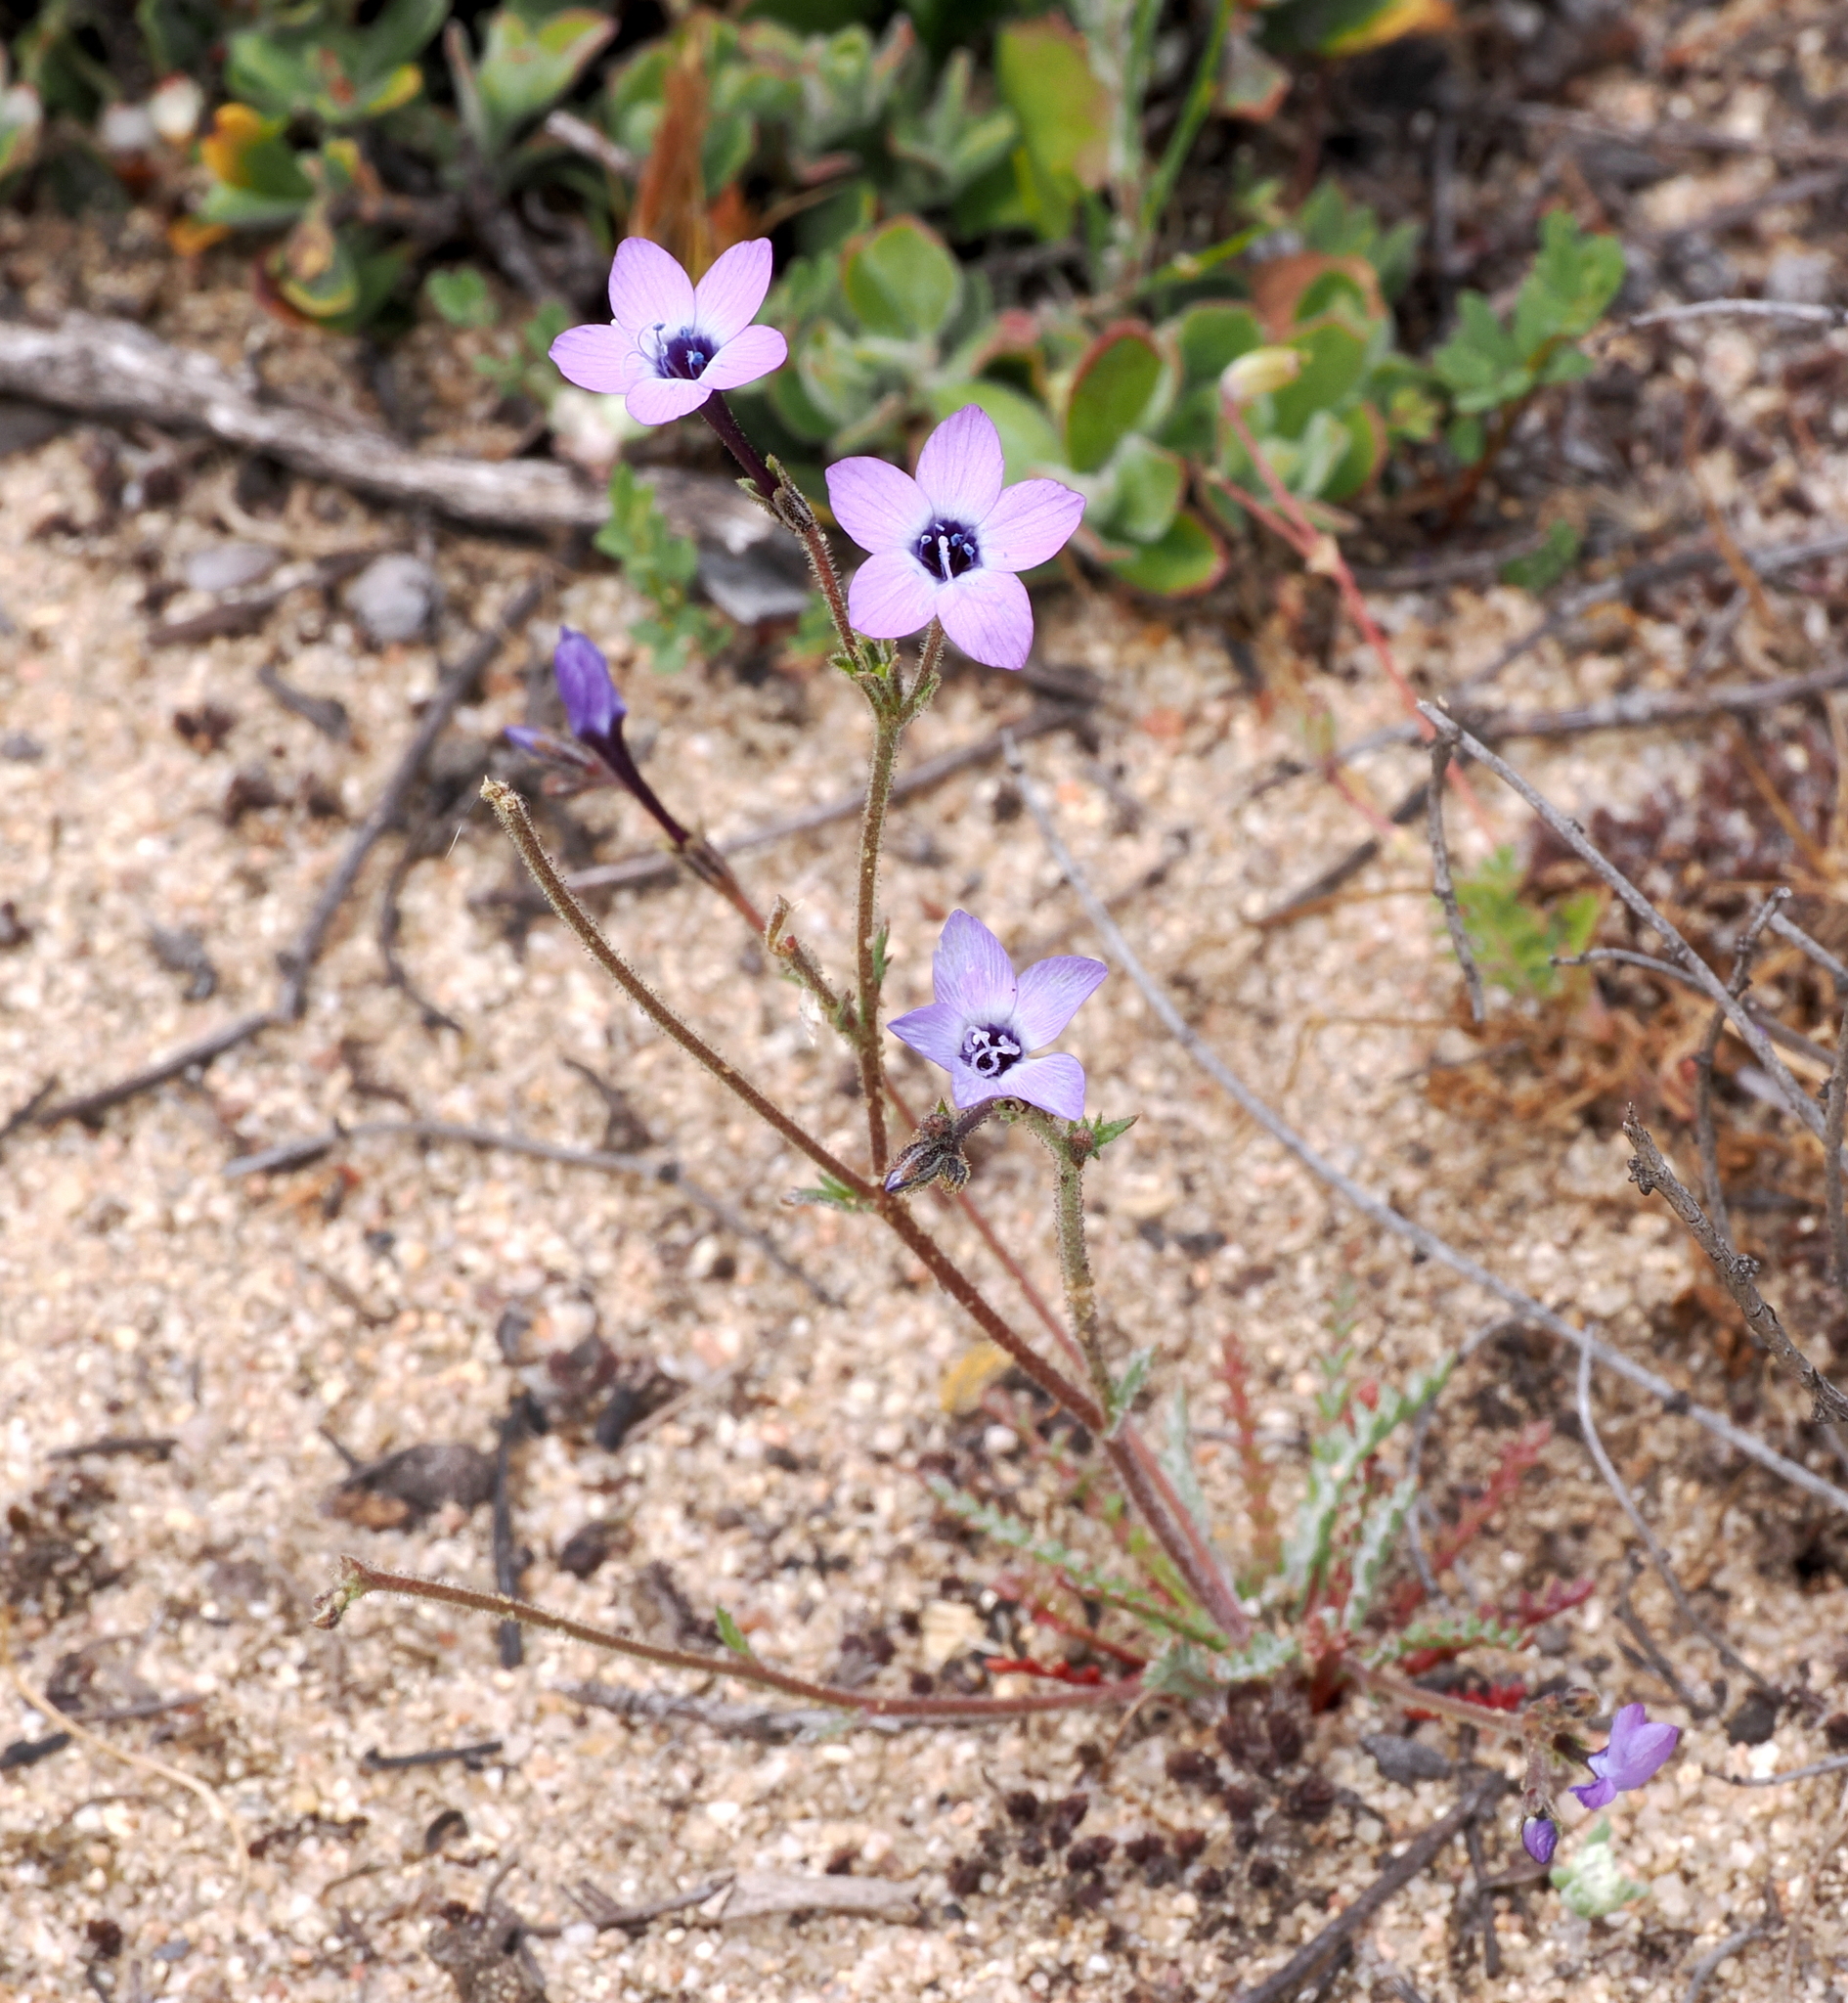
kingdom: Plantae
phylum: Tracheophyta
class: Magnoliopsida
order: Ericales
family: Polemoniaceae
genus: Gilia
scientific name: Gilia tenuiflora
